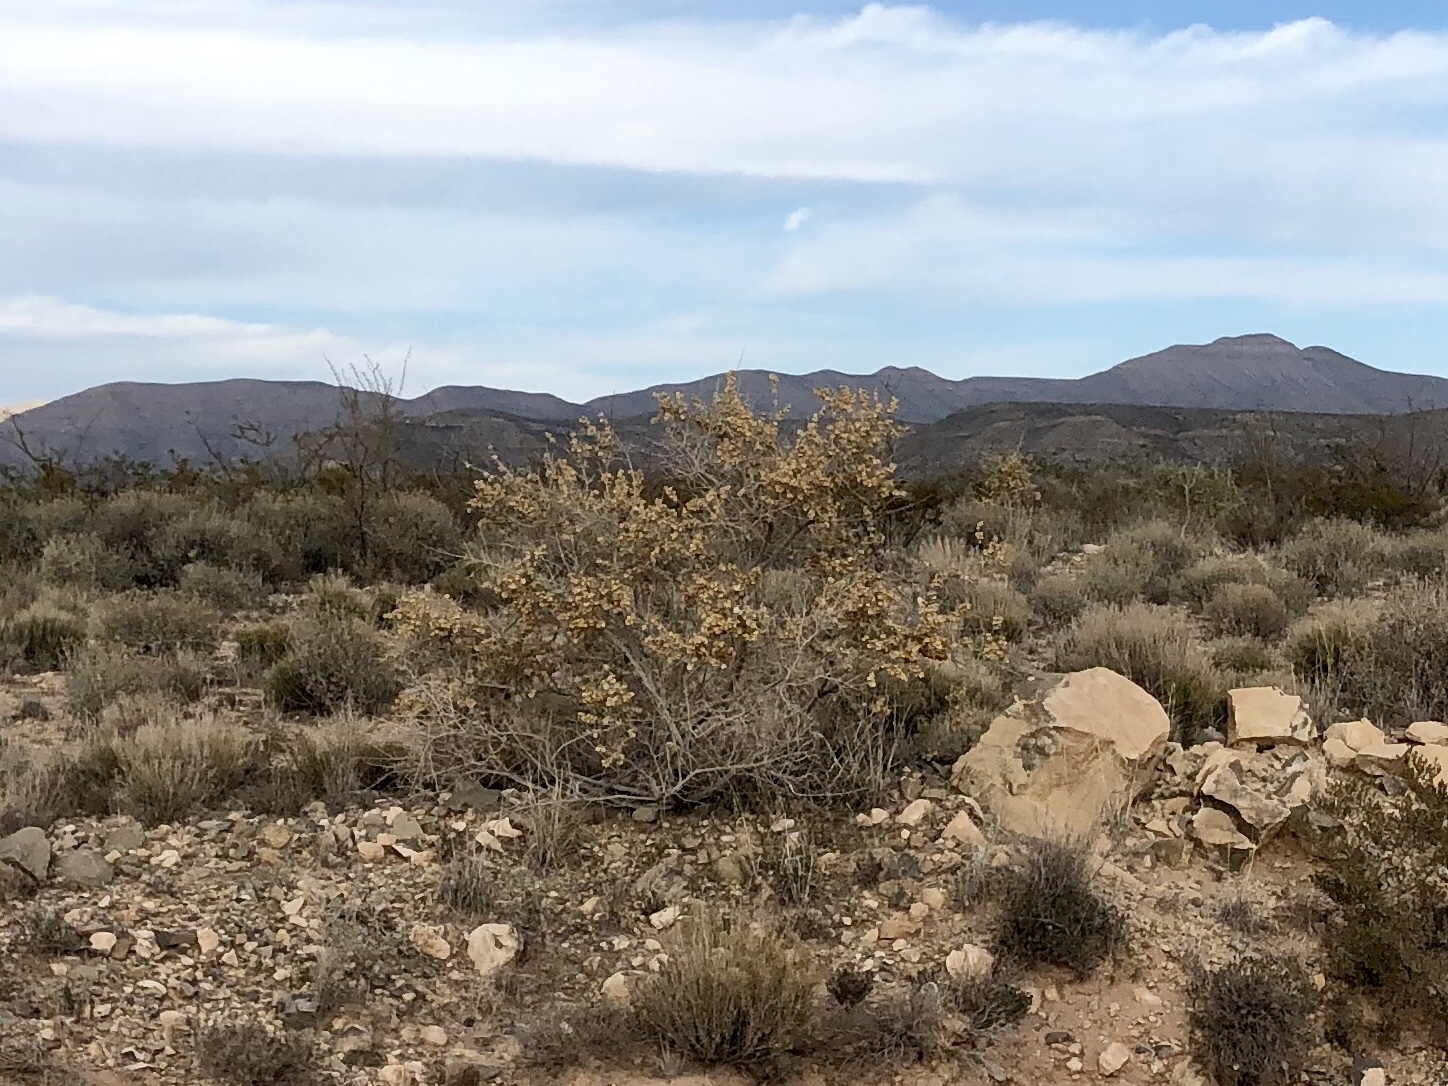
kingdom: Plantae
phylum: Tracheophyta
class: Magnoliopsida
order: Caryophyllales
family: Amaranthaceae
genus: Atriplex
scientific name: Atriplex canescens
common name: Four-wing saltbush
